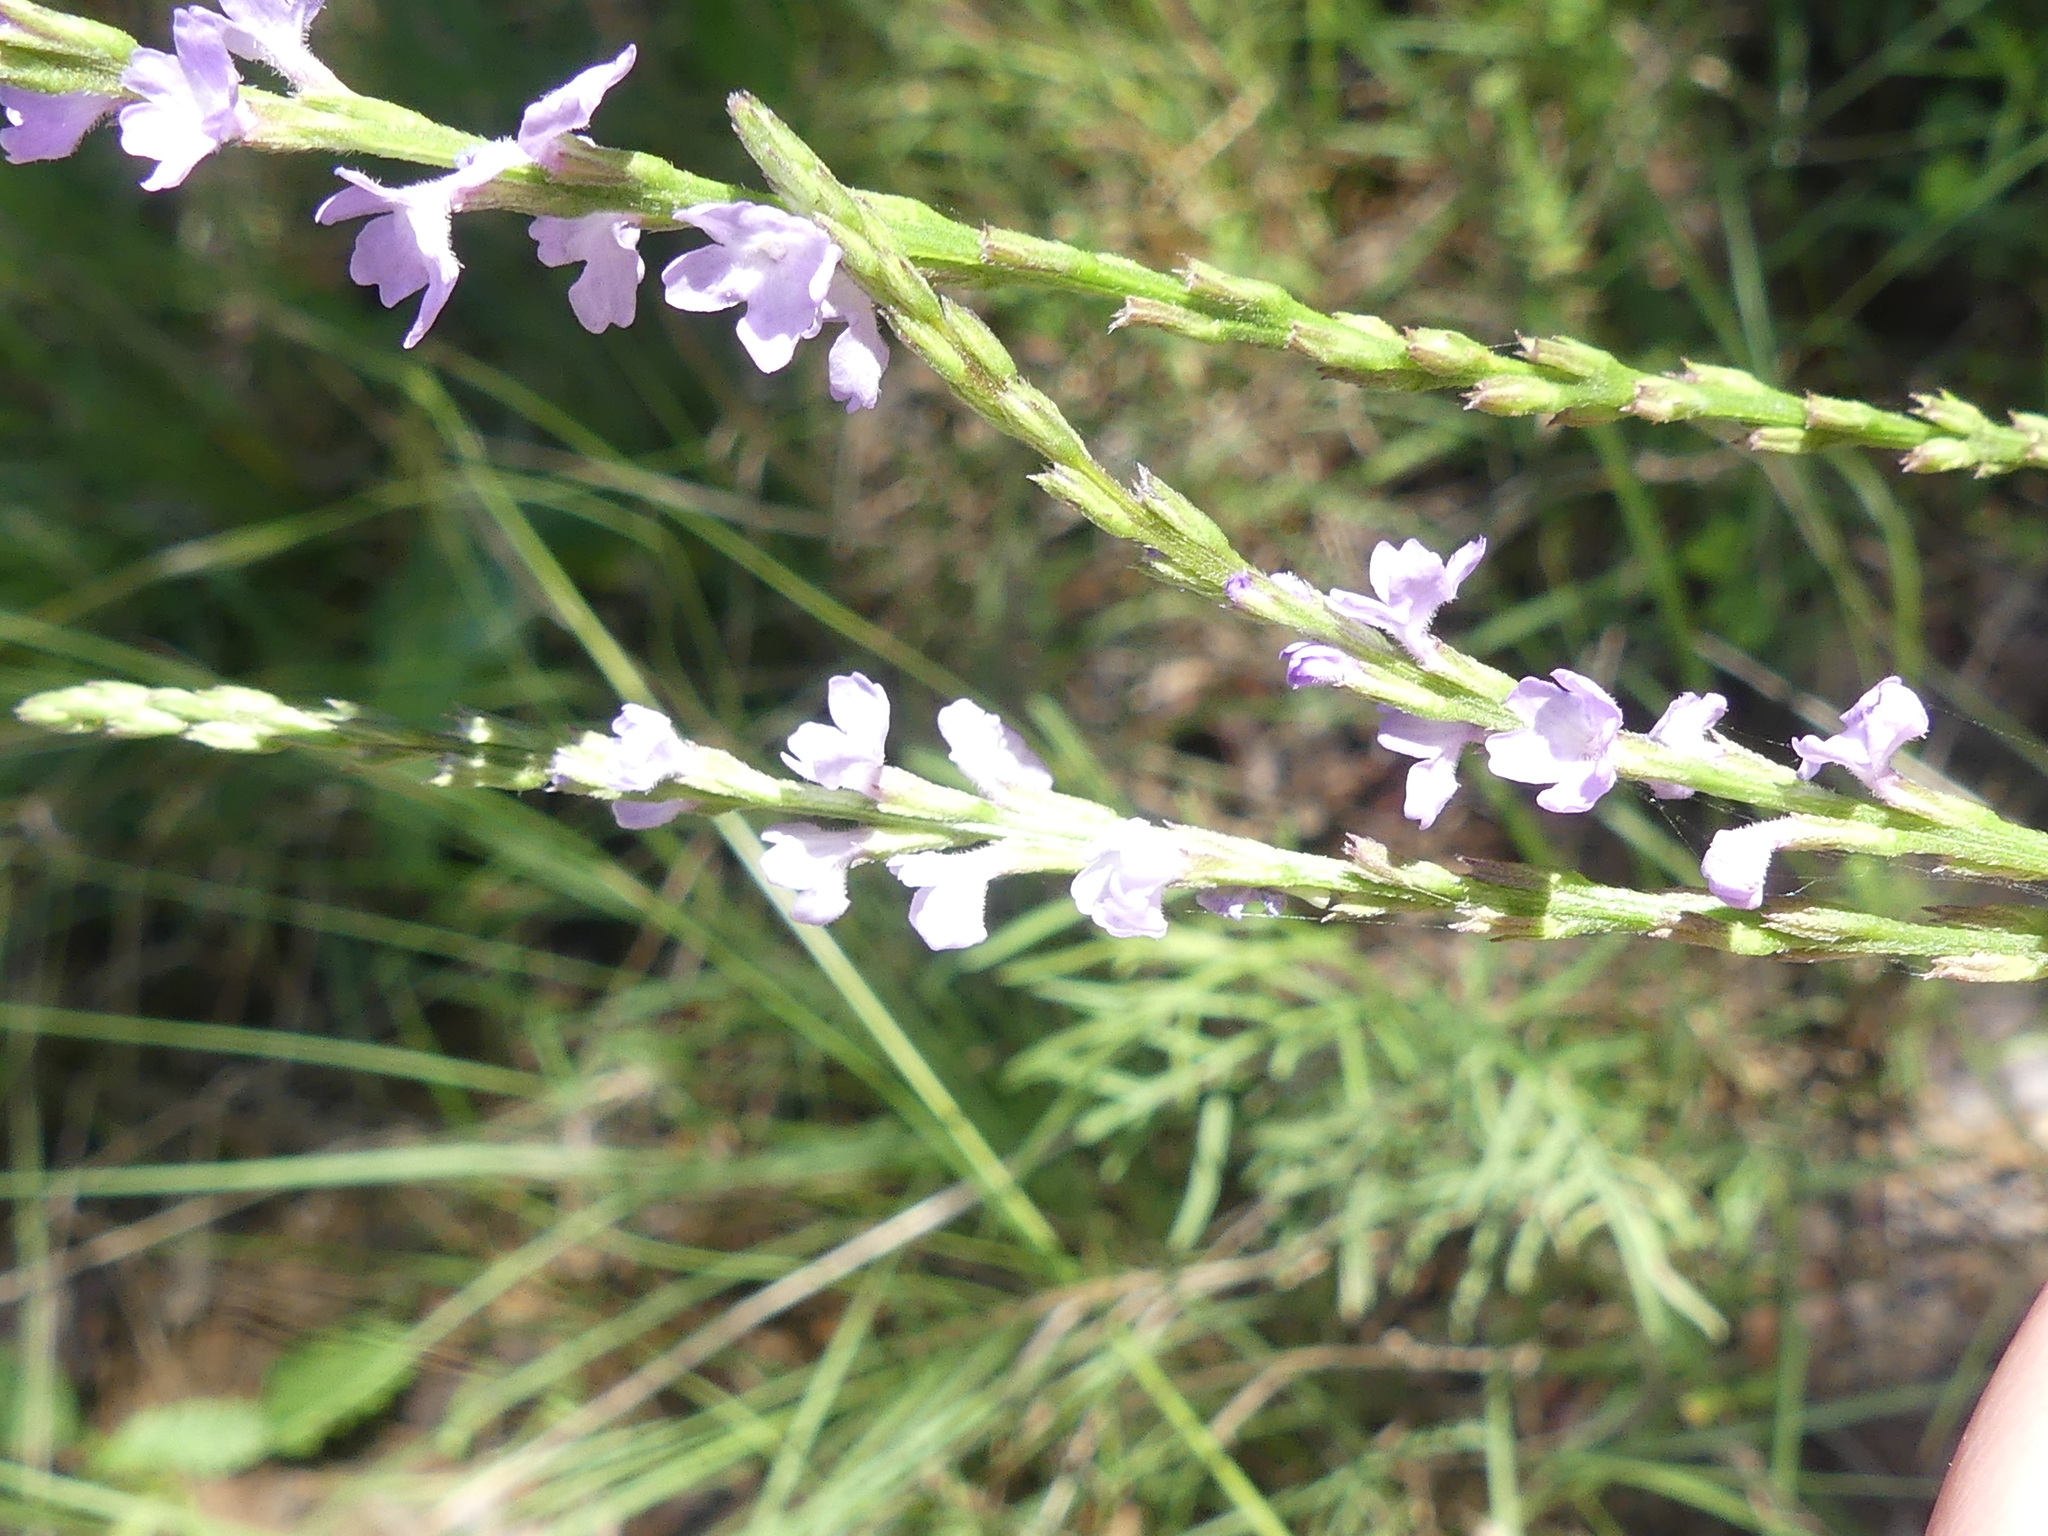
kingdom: Plantae
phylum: Tracheophyta
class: Magnoliopsida
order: Lamiales
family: Verbenaceae
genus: Verbena
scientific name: Verbena halei
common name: Texas vervain
